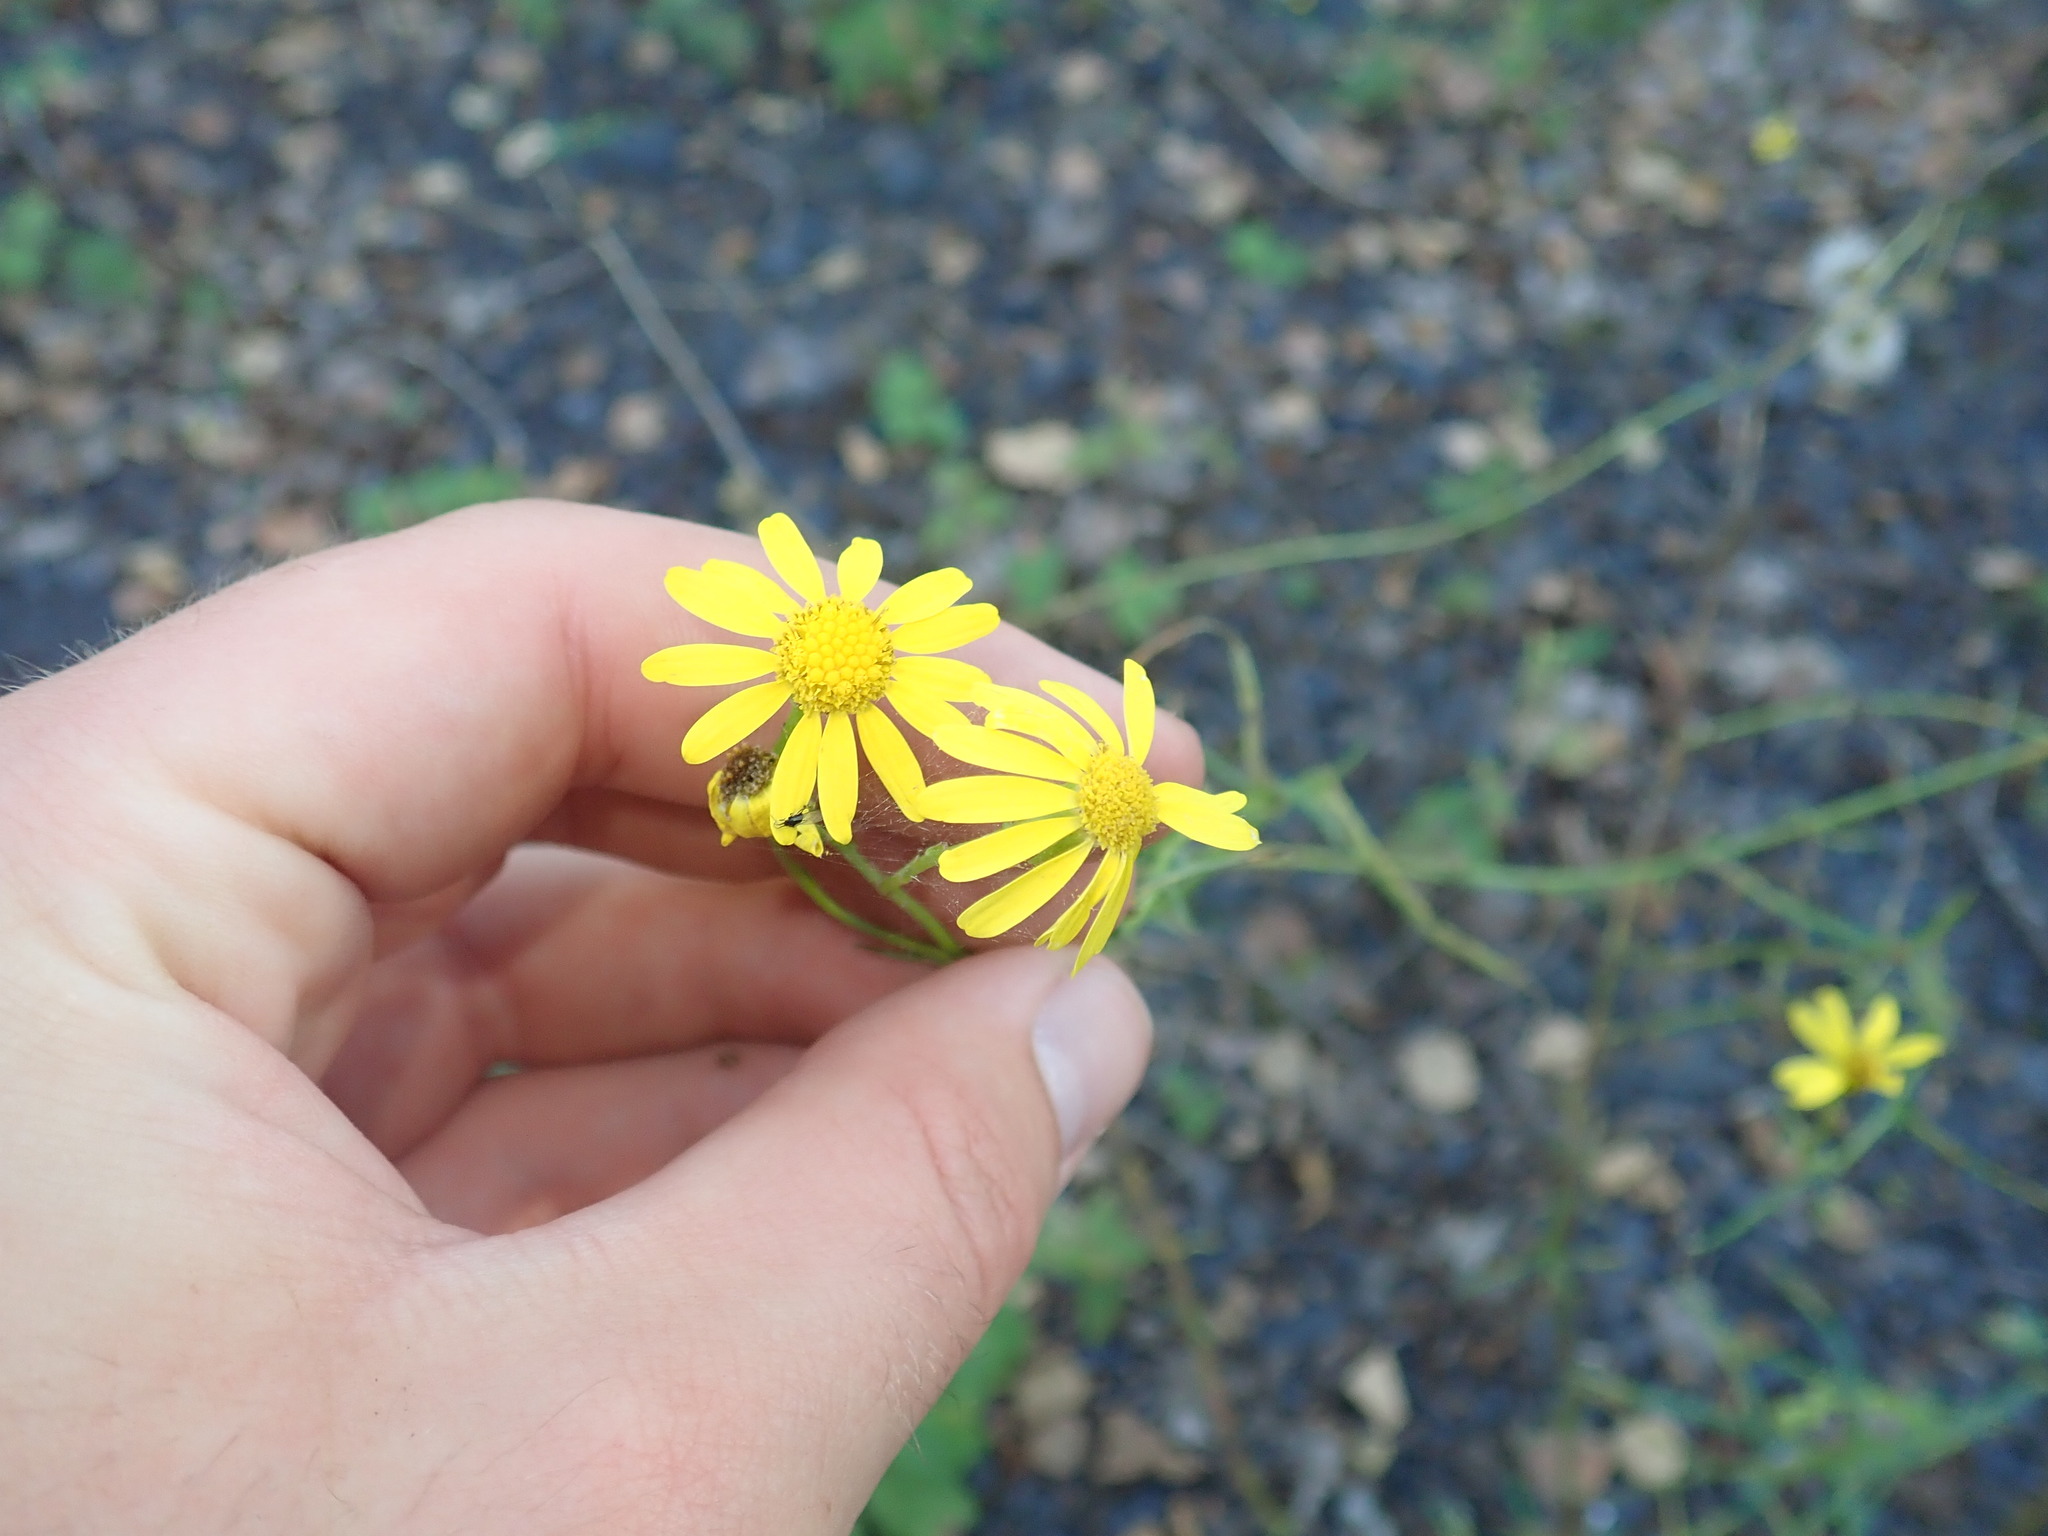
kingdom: Plantae
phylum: Tracheophyta
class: Magnoliopsida
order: Asterales
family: Asteraceae
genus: Senecio
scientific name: Senecio inaequidens
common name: Narrow-leaved ragwort
